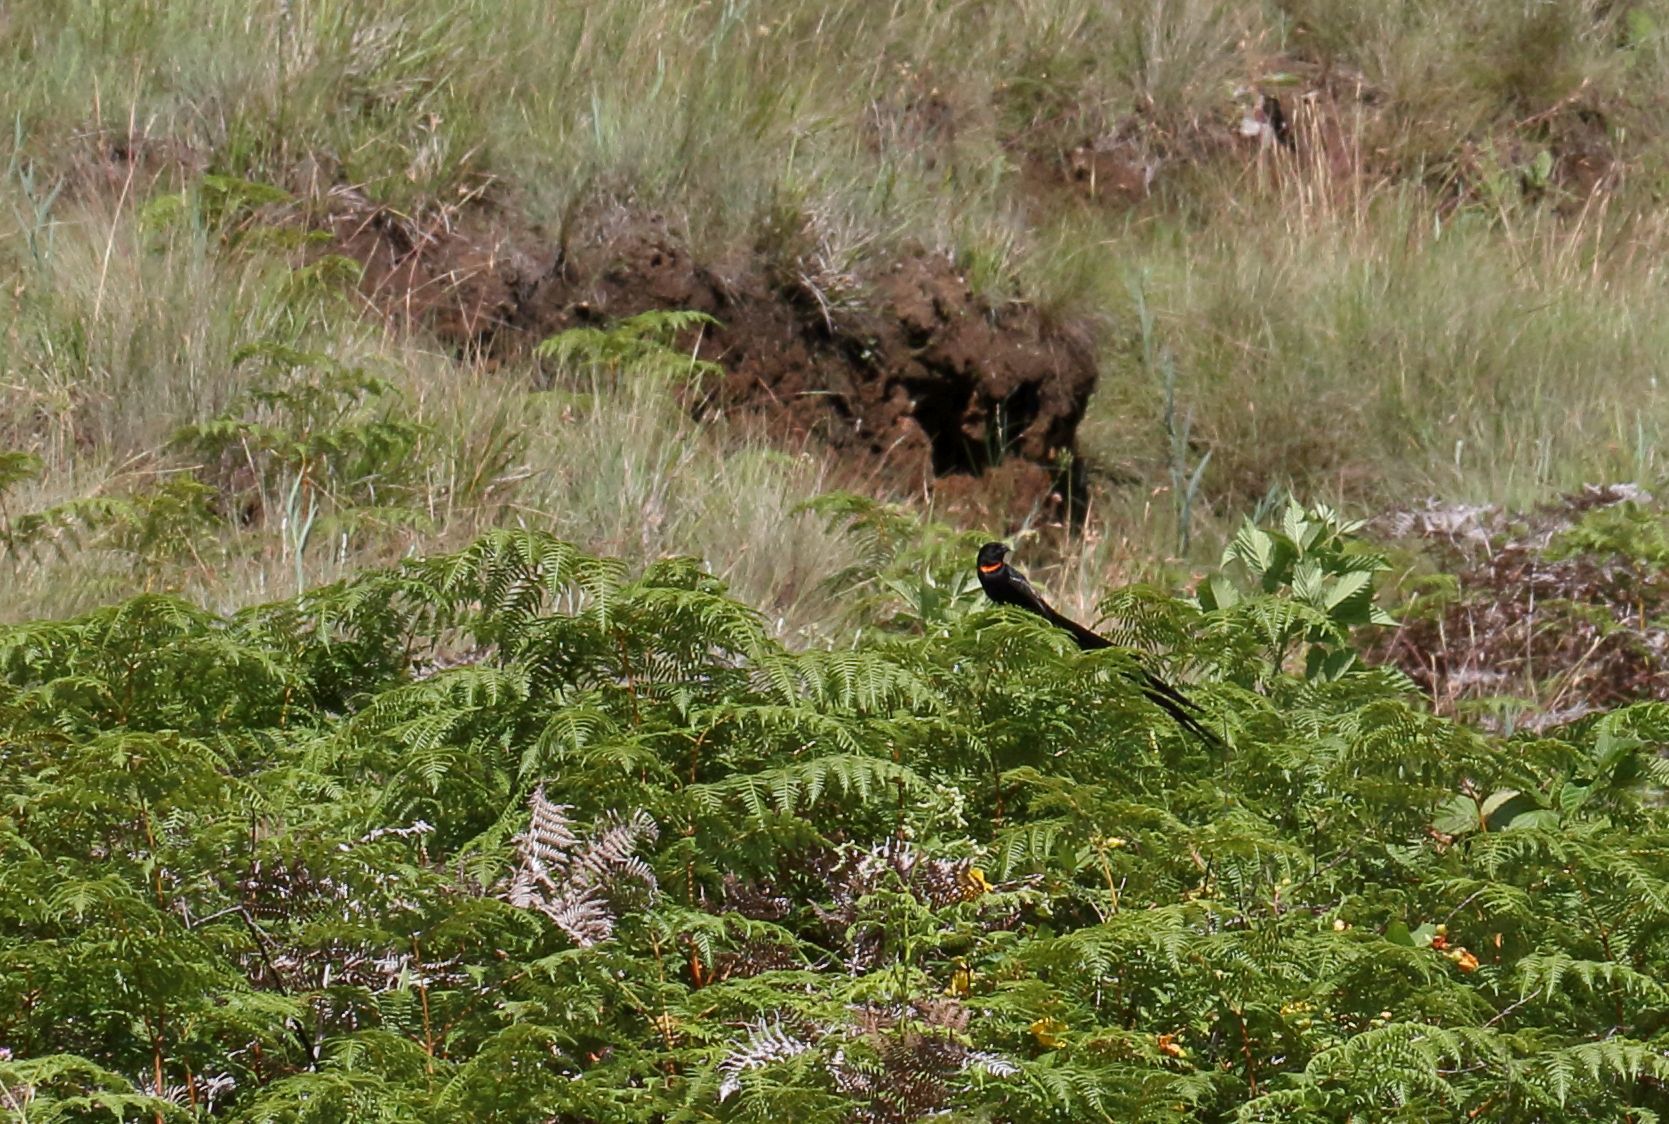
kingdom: Animalia
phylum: Chordata
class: Aves
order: Passeriformes
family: Ploceidae
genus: Euplectes
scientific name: Euplectes ardens
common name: Red-collared widowbird
